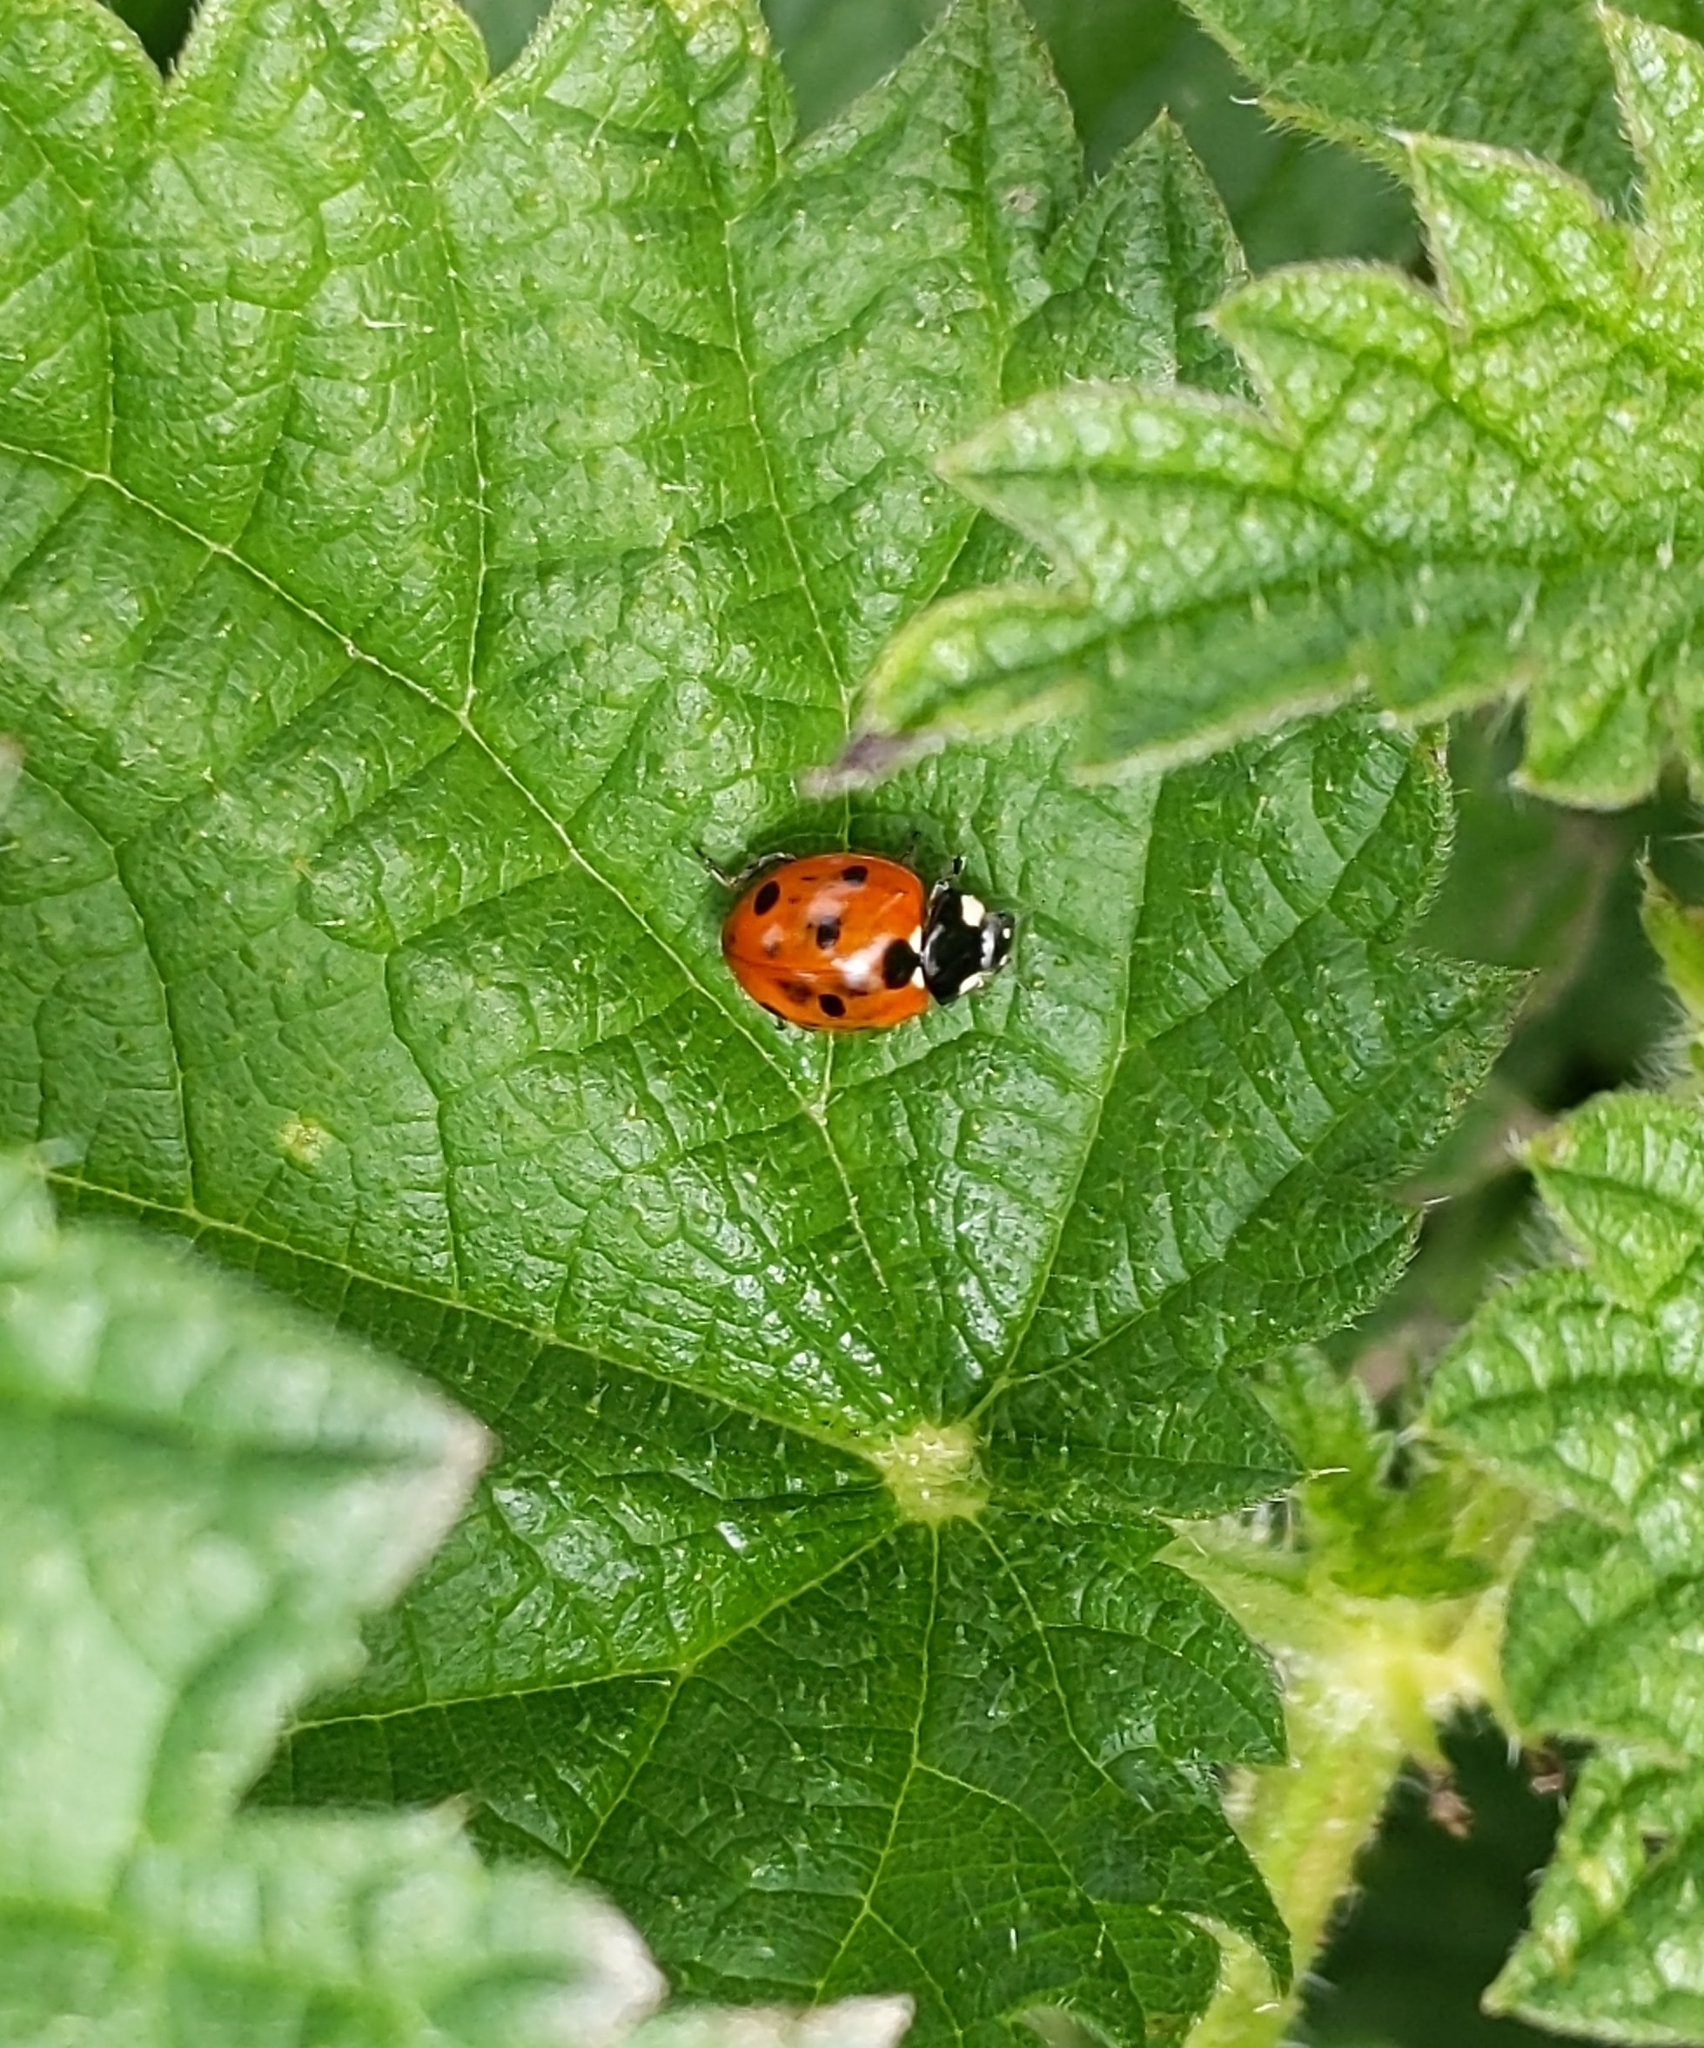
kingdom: Animalia
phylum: Arthropoda
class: Insecta
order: Coleoptera
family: Coccinellidae
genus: Coccinella
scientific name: Coccinella septempunctata
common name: Sevenspotted lady beetle
